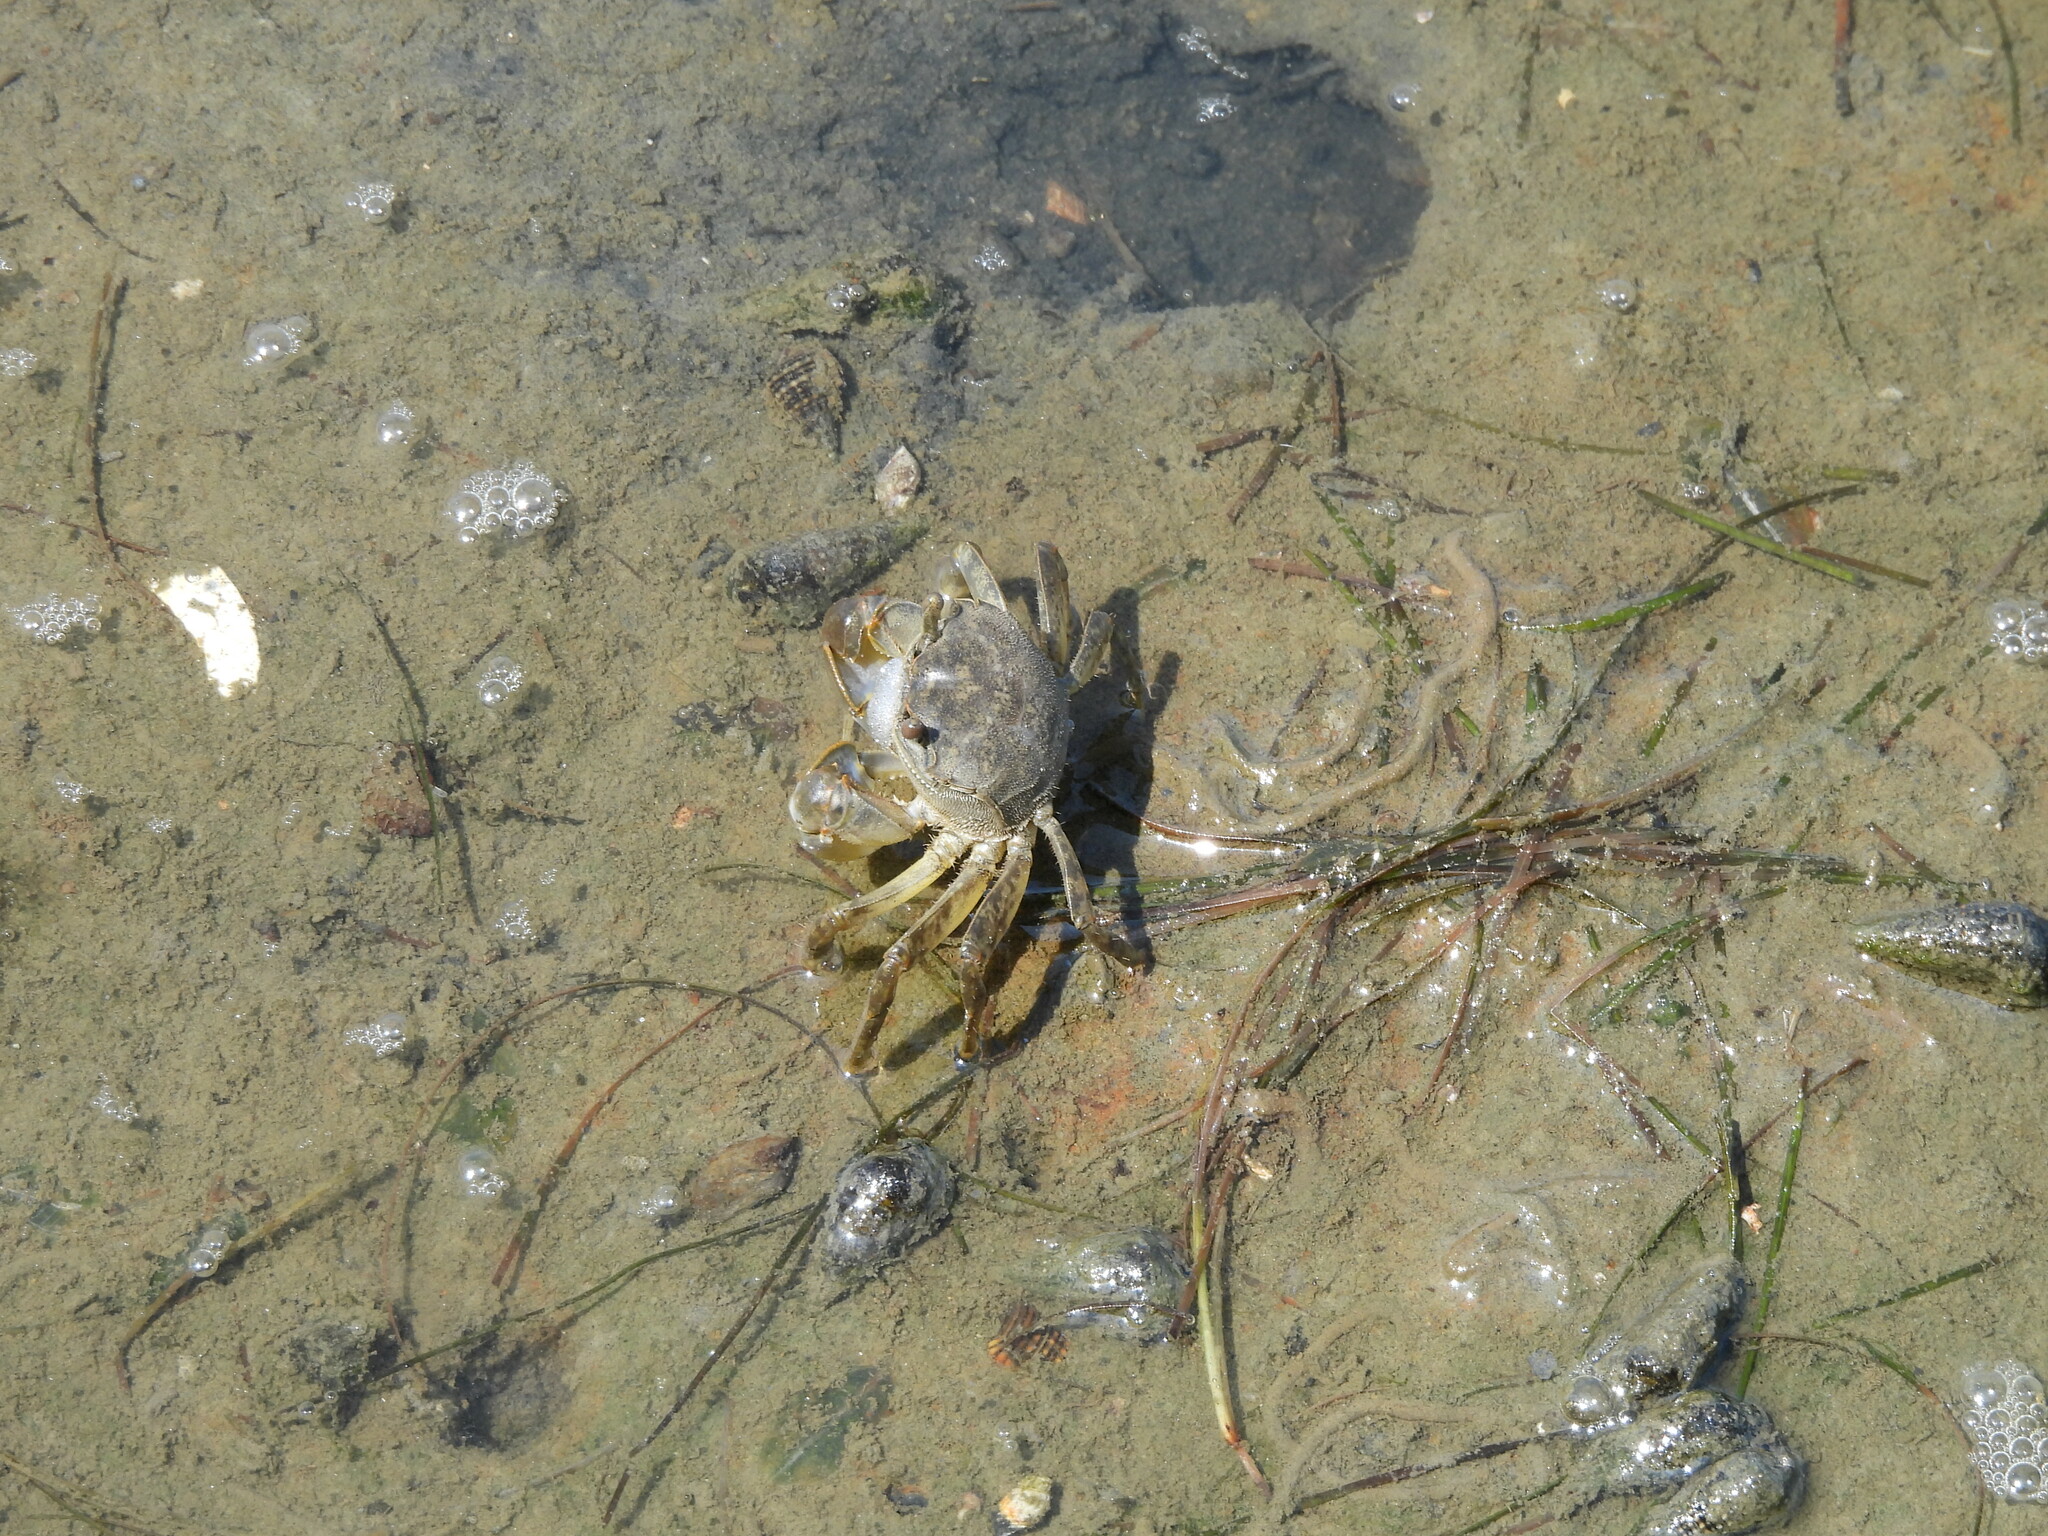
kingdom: Animalia
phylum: Arthropoda
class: Malacostraca
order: Decapoda
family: Varunidae
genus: Helice
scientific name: Helice formosensis
